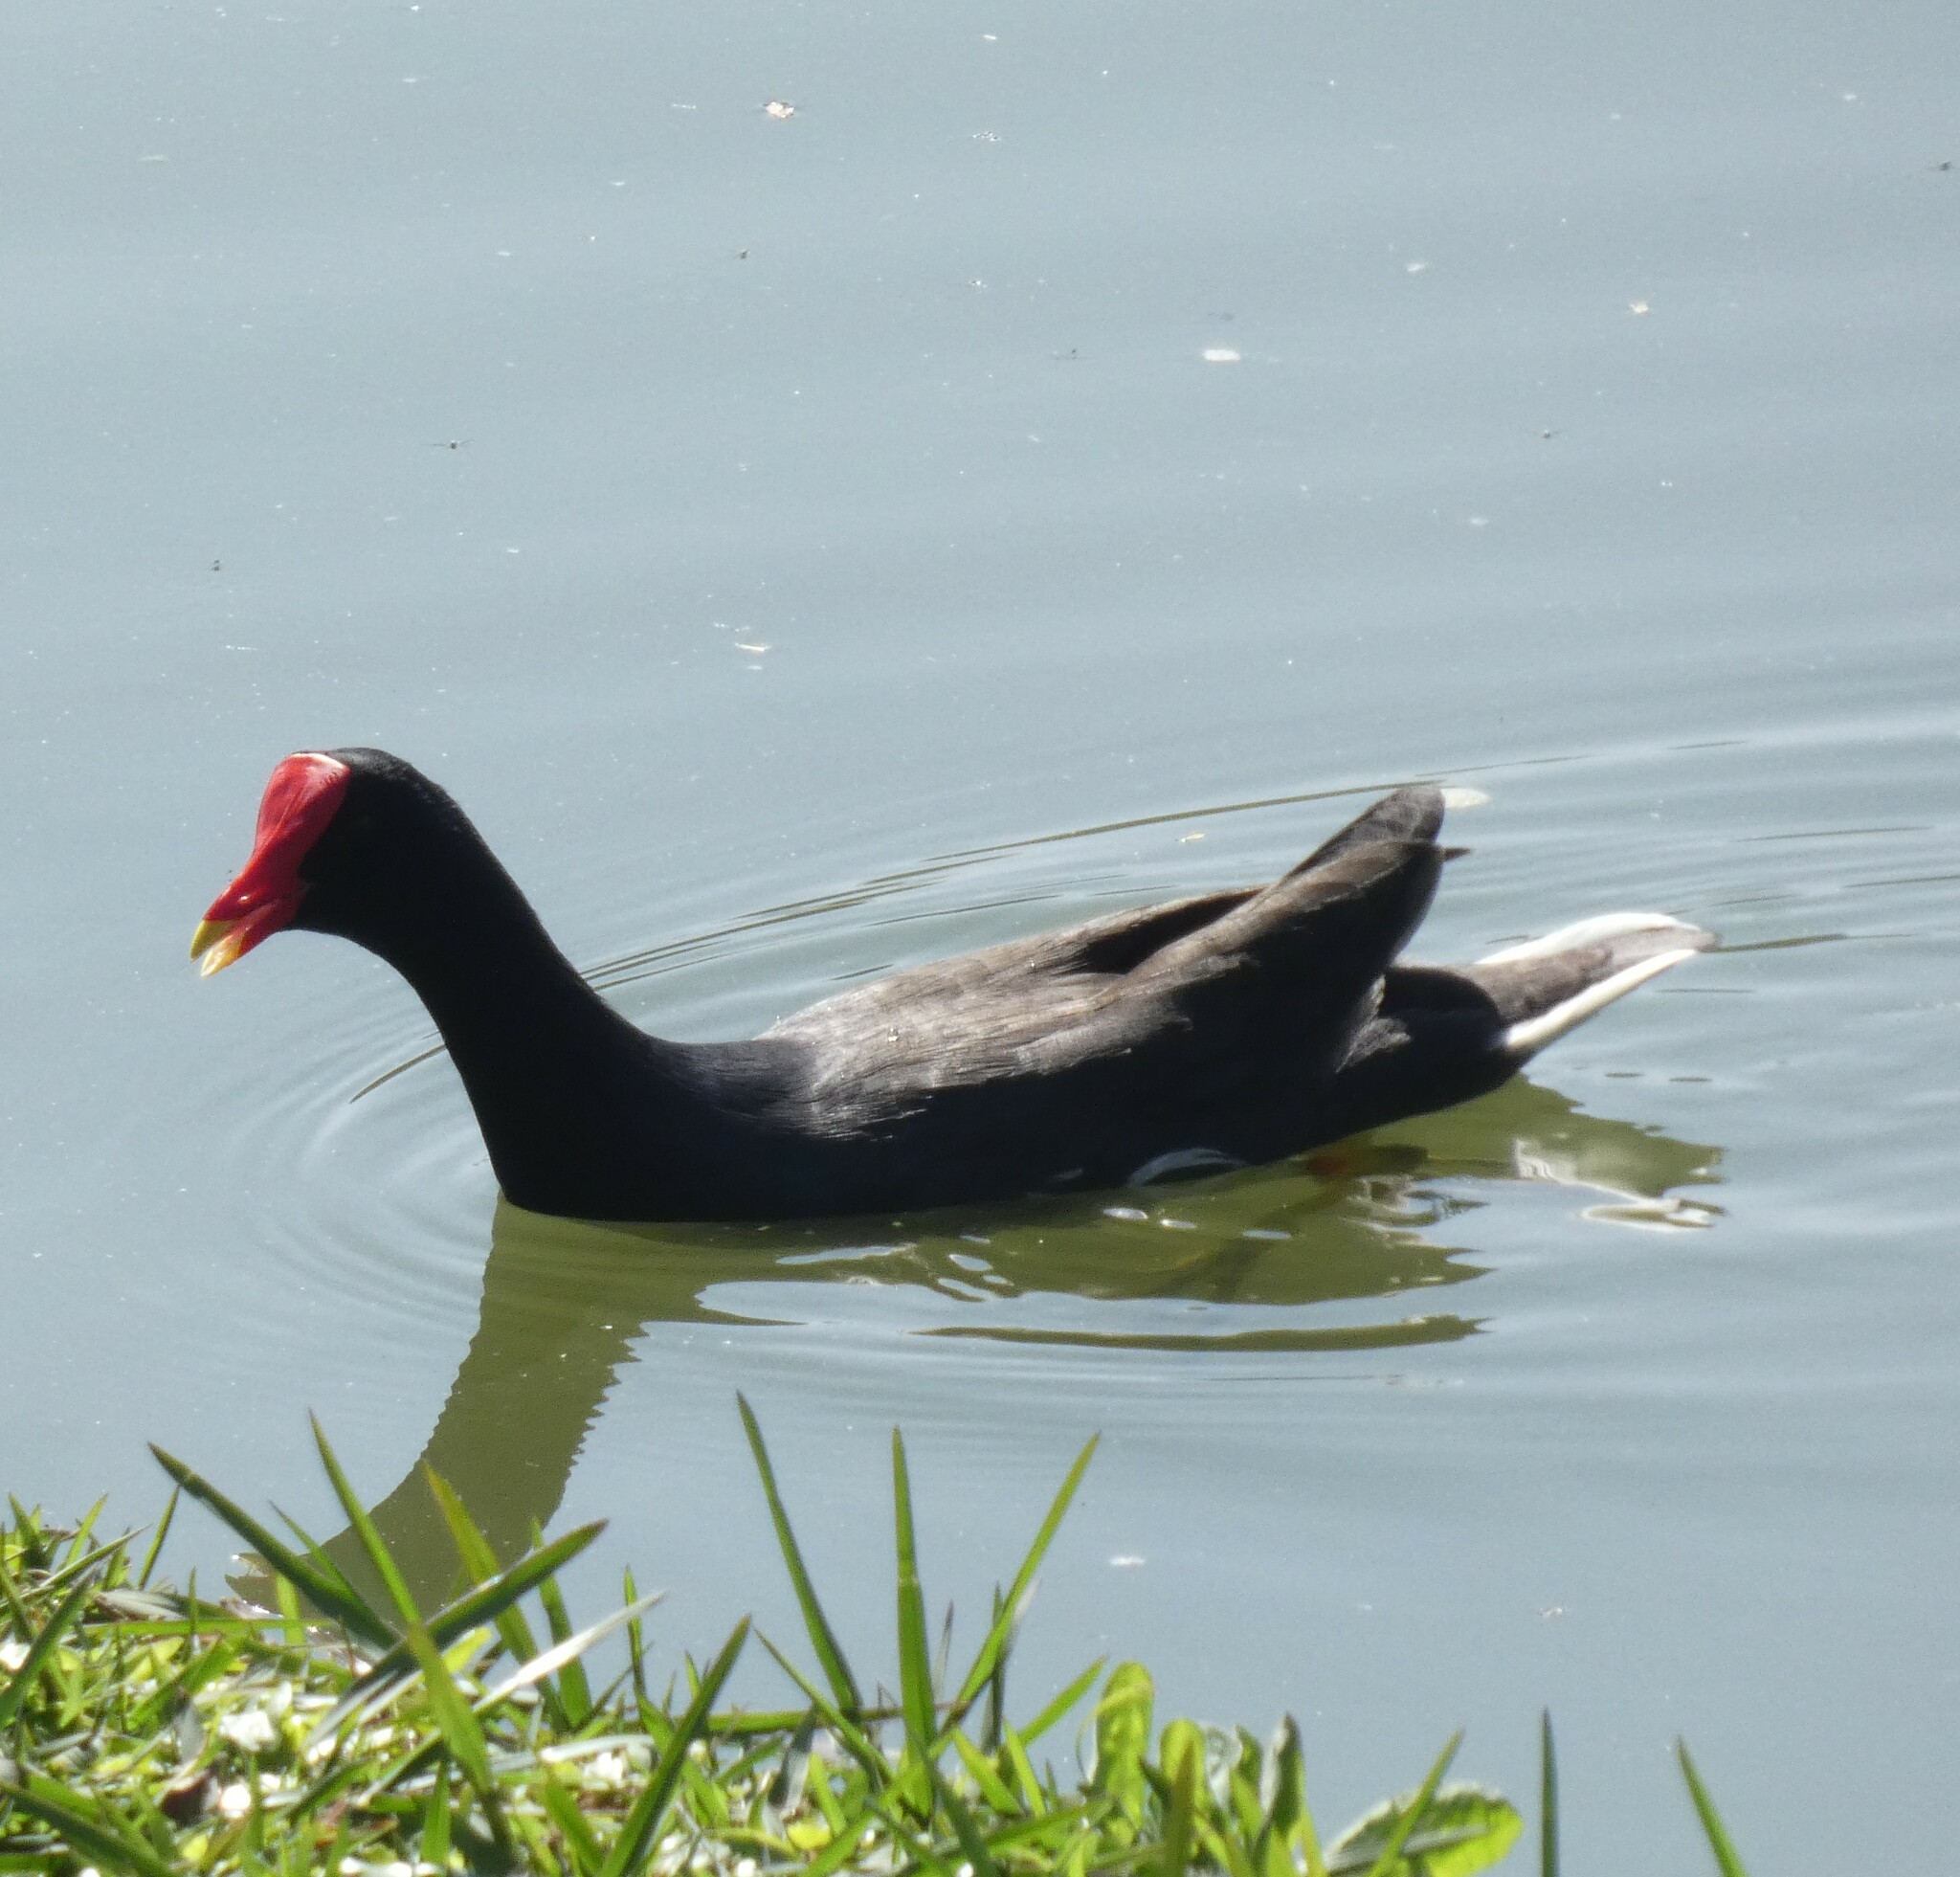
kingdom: Animalia
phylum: Chordata
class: Aves
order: Gruiformes
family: Rallidae
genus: Gallinula
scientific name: Gallinula chloropus
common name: Common moorhen
